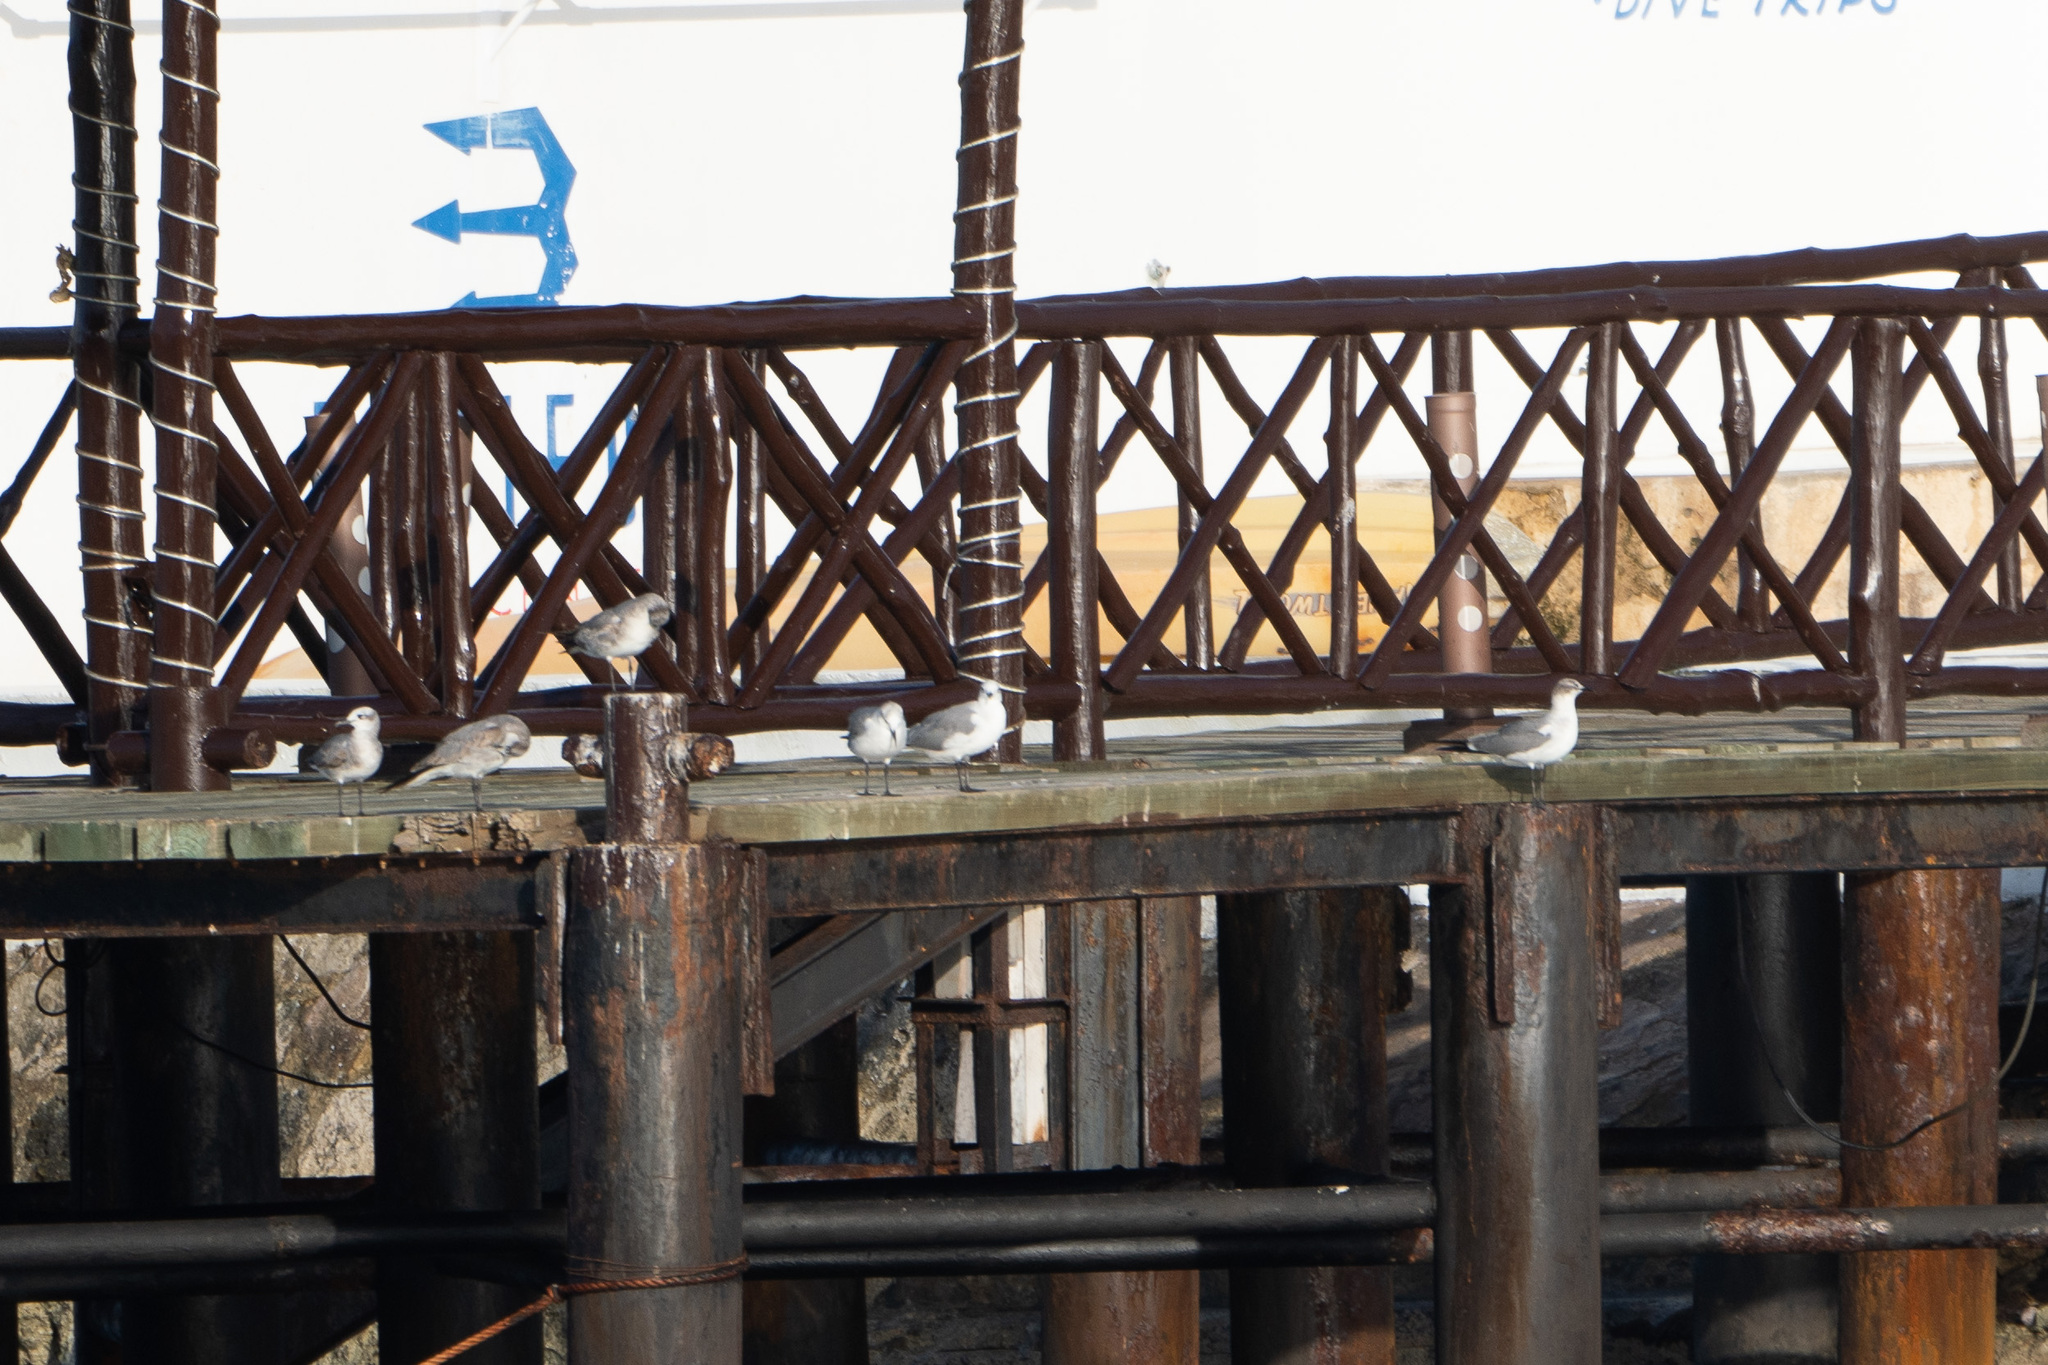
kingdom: Animalia
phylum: Chordata
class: Aves
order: Charadriiformes
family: Laridae
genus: Leucophaeus
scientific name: Leucophaeus atricilla
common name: Laughing gull
